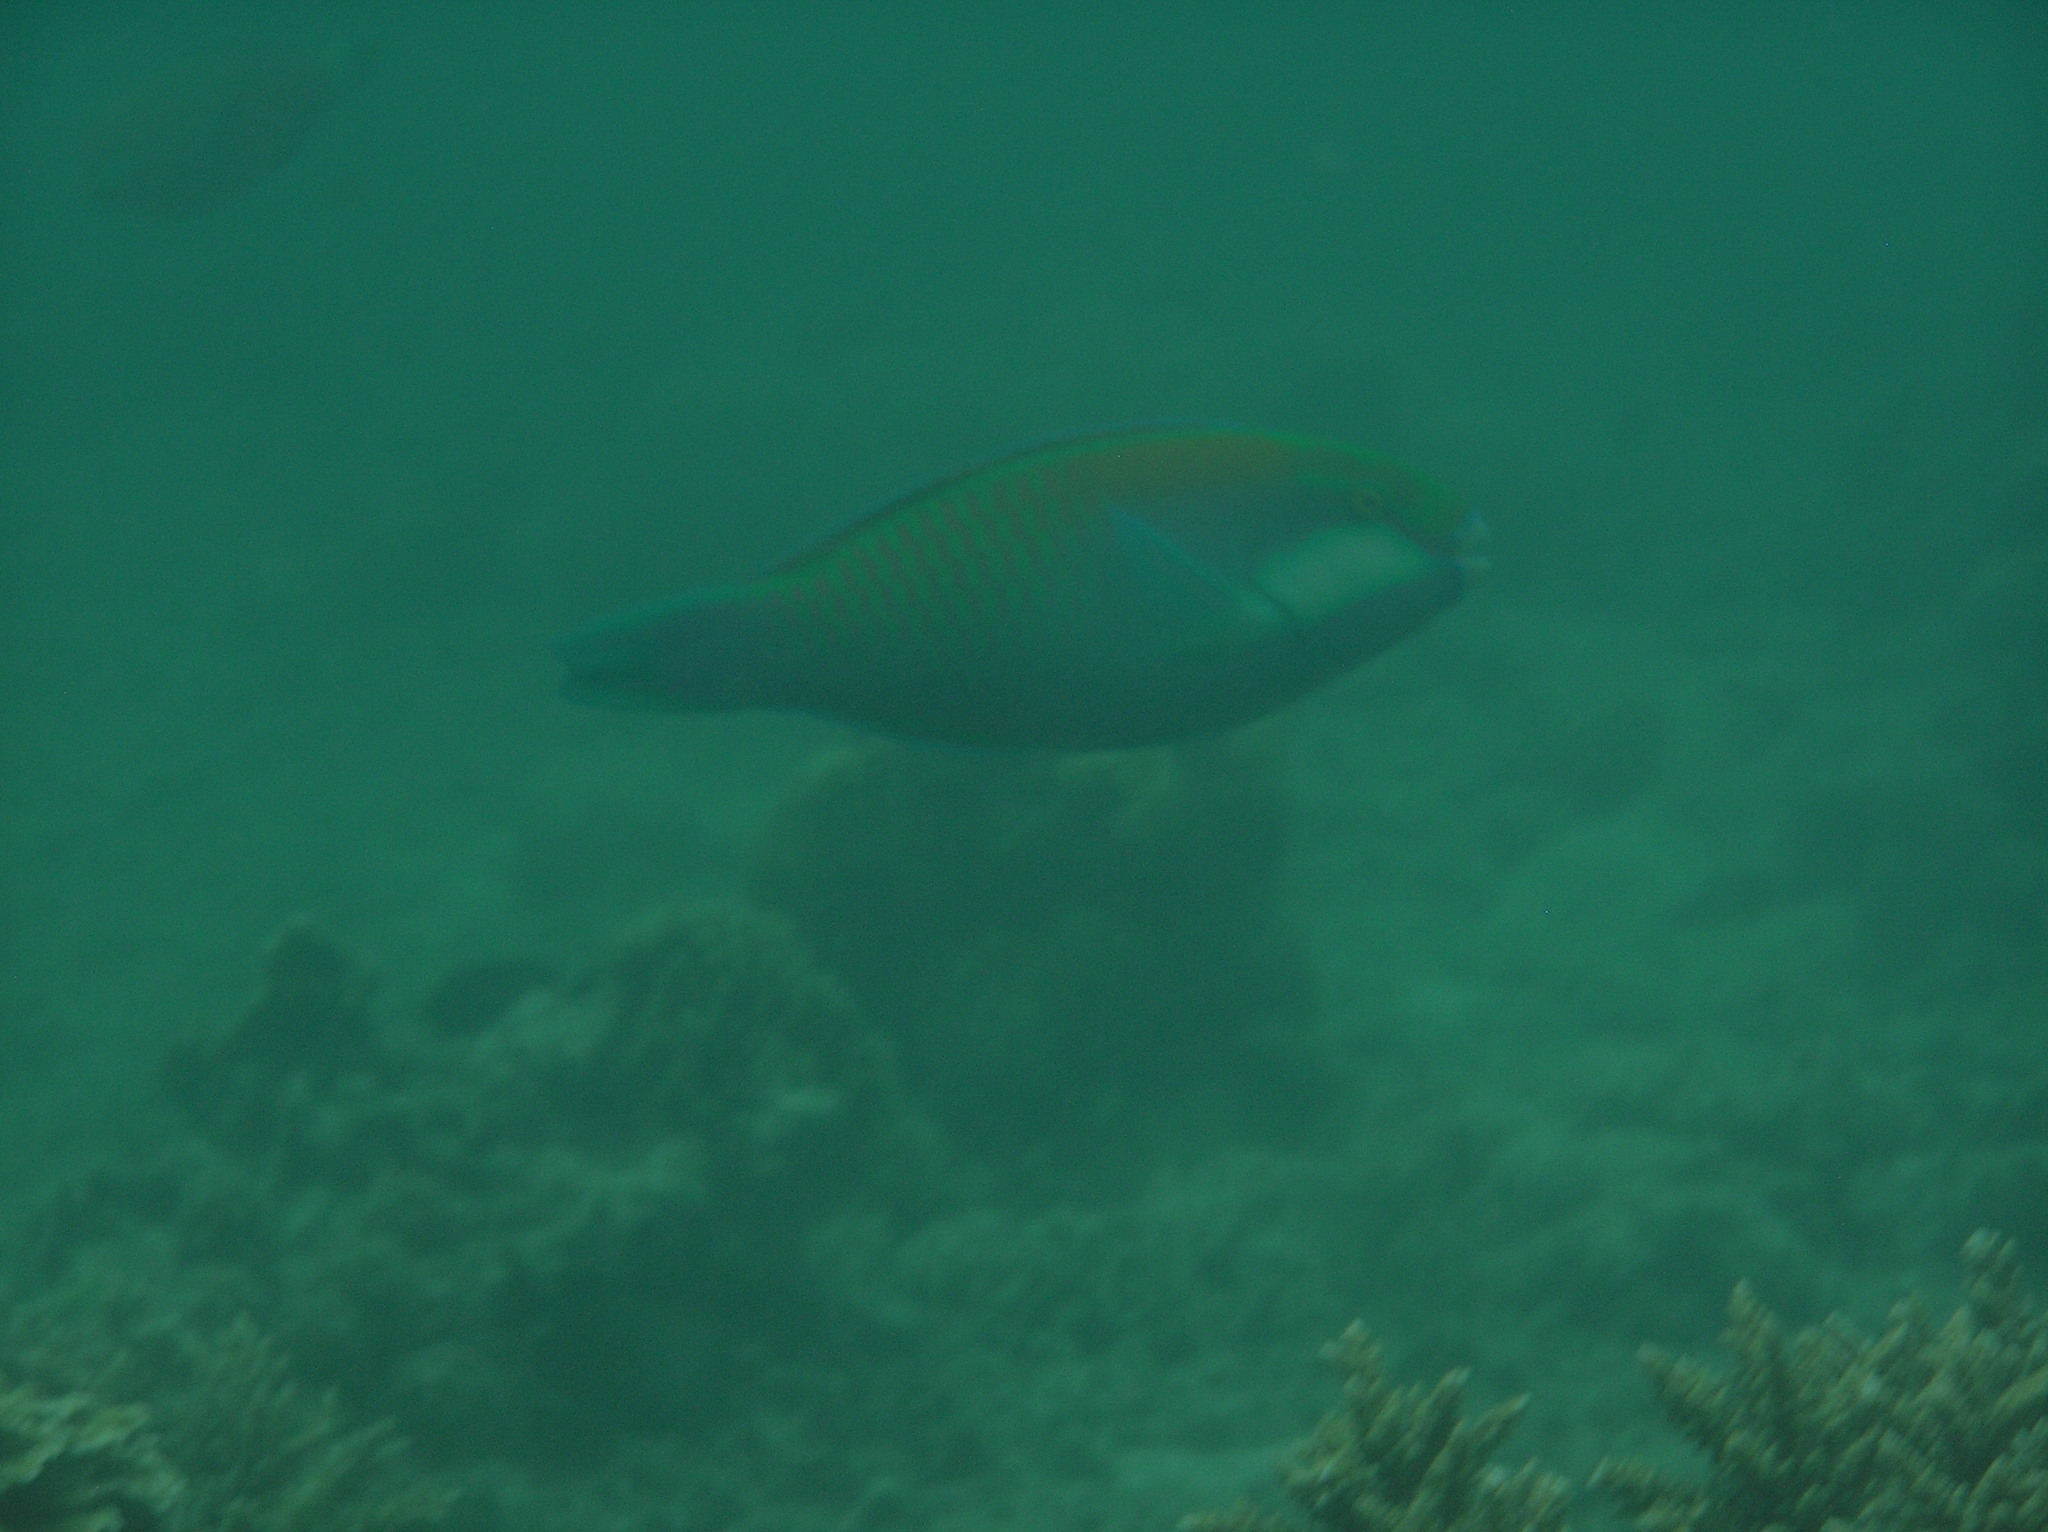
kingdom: Animalia
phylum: Chordata
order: Perciformes
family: Scaridae
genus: Chlorurus
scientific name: Chlorurus bleekeri
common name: Bleeker's parrotfish
